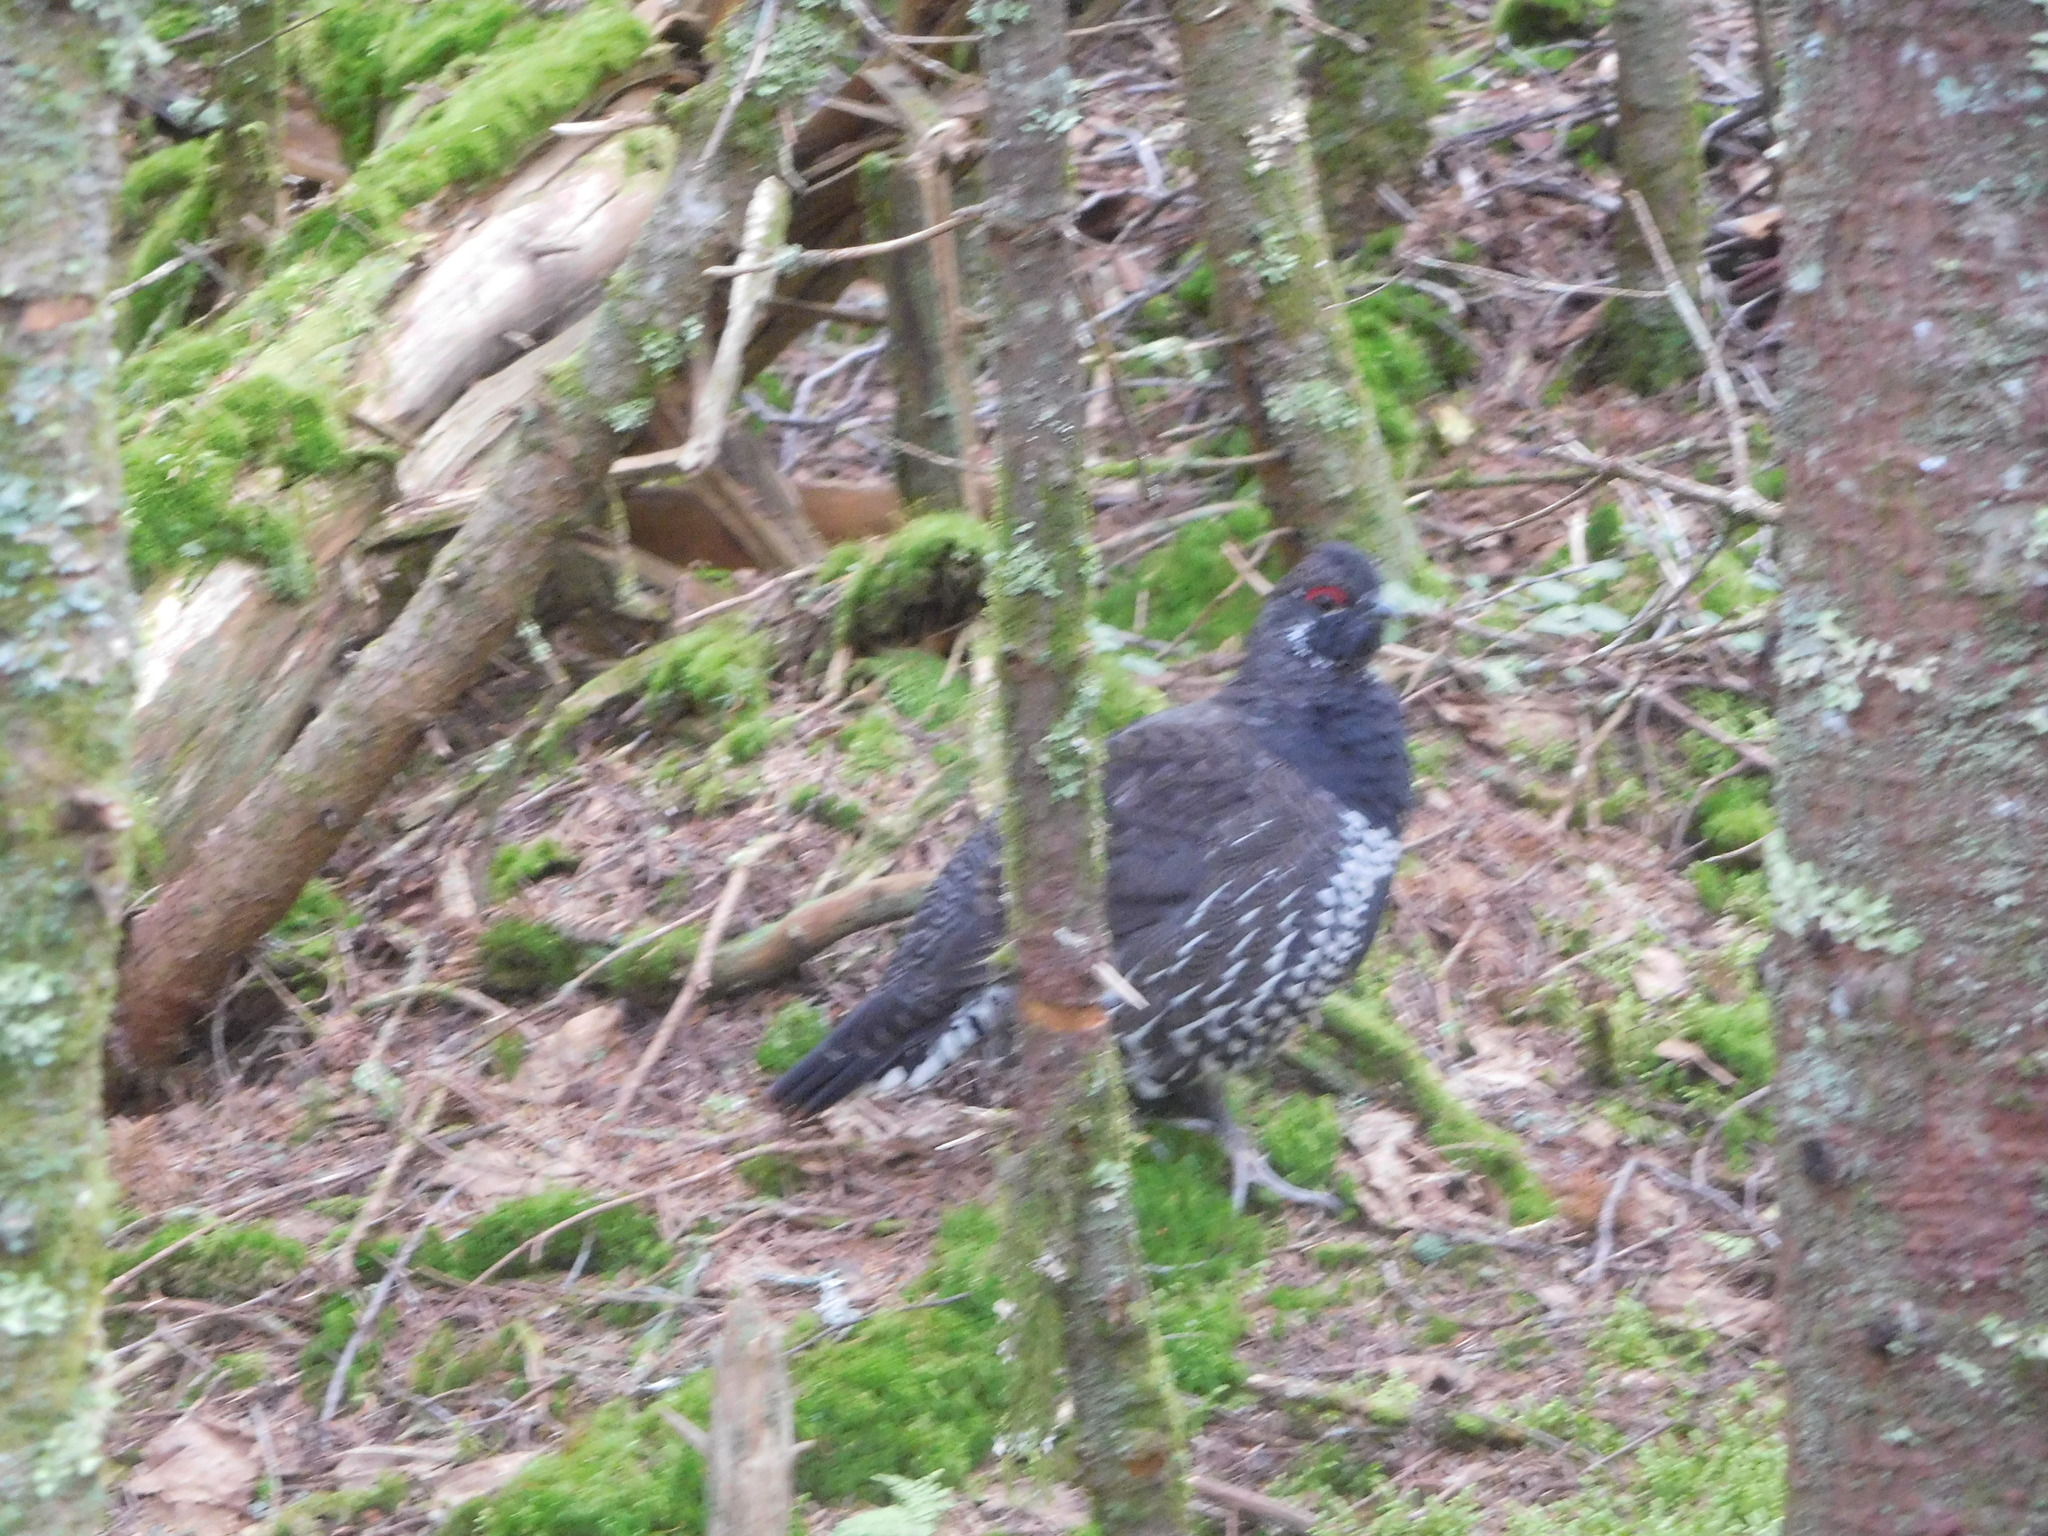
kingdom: Animalia
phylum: Chordata
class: Aves
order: Galliformes
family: Phasianidae
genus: Canachites
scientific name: Canachites canadensis
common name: Spruce grouse
